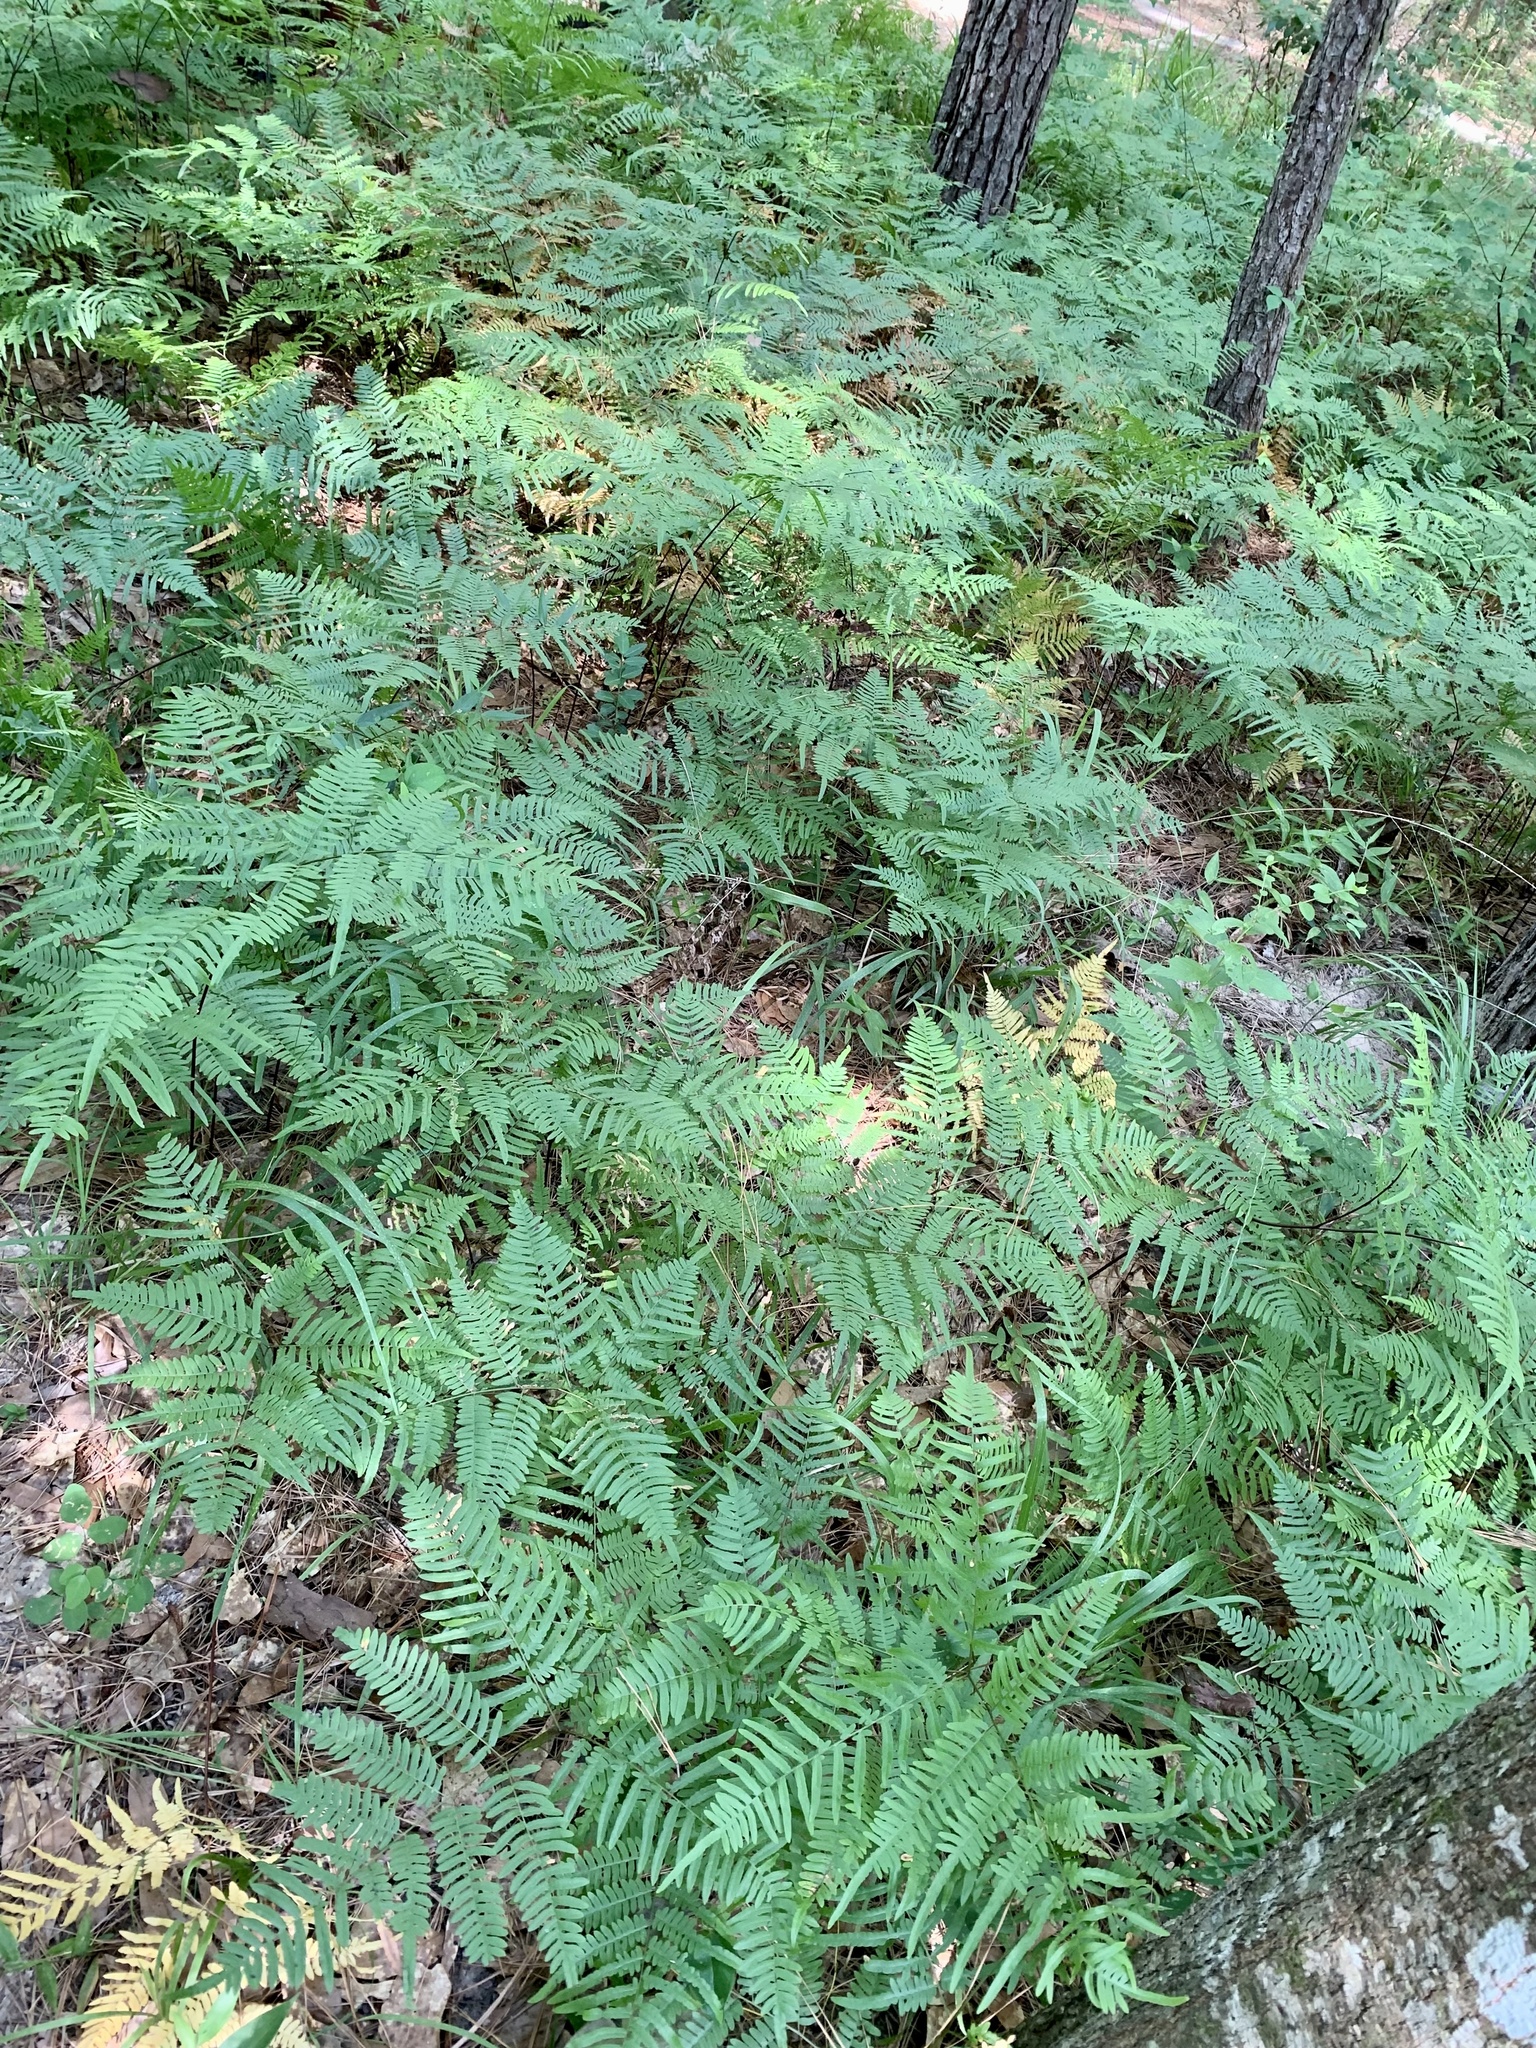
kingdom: Plantae
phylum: Tracheophyta
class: Polypodiopsida
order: Polypodiales
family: Dennstaedtiaceae
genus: Pteridium
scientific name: Pteridium aquilinum
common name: Bracken
